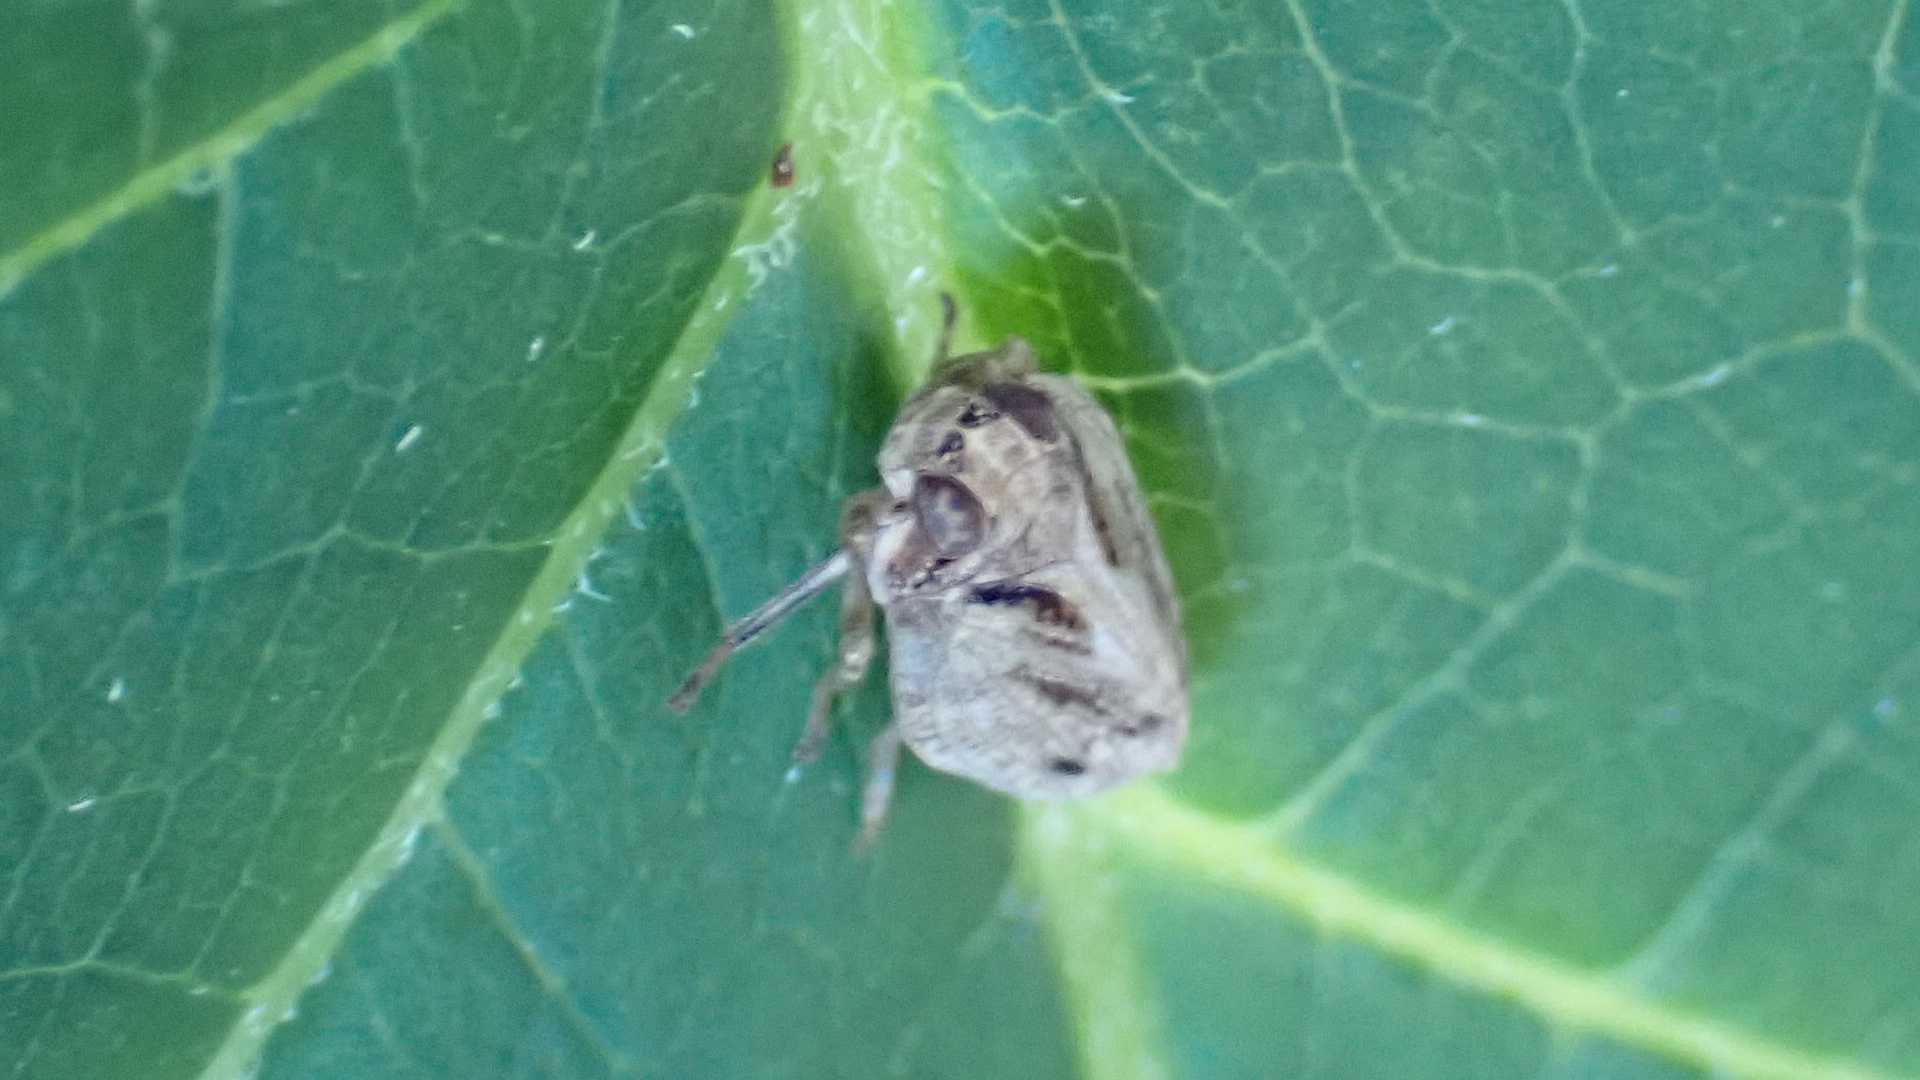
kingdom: Animalia
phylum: Arthropoda
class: Insecta
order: Hemiptera
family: Issidae
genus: Issus
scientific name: Issus coleoptratus
